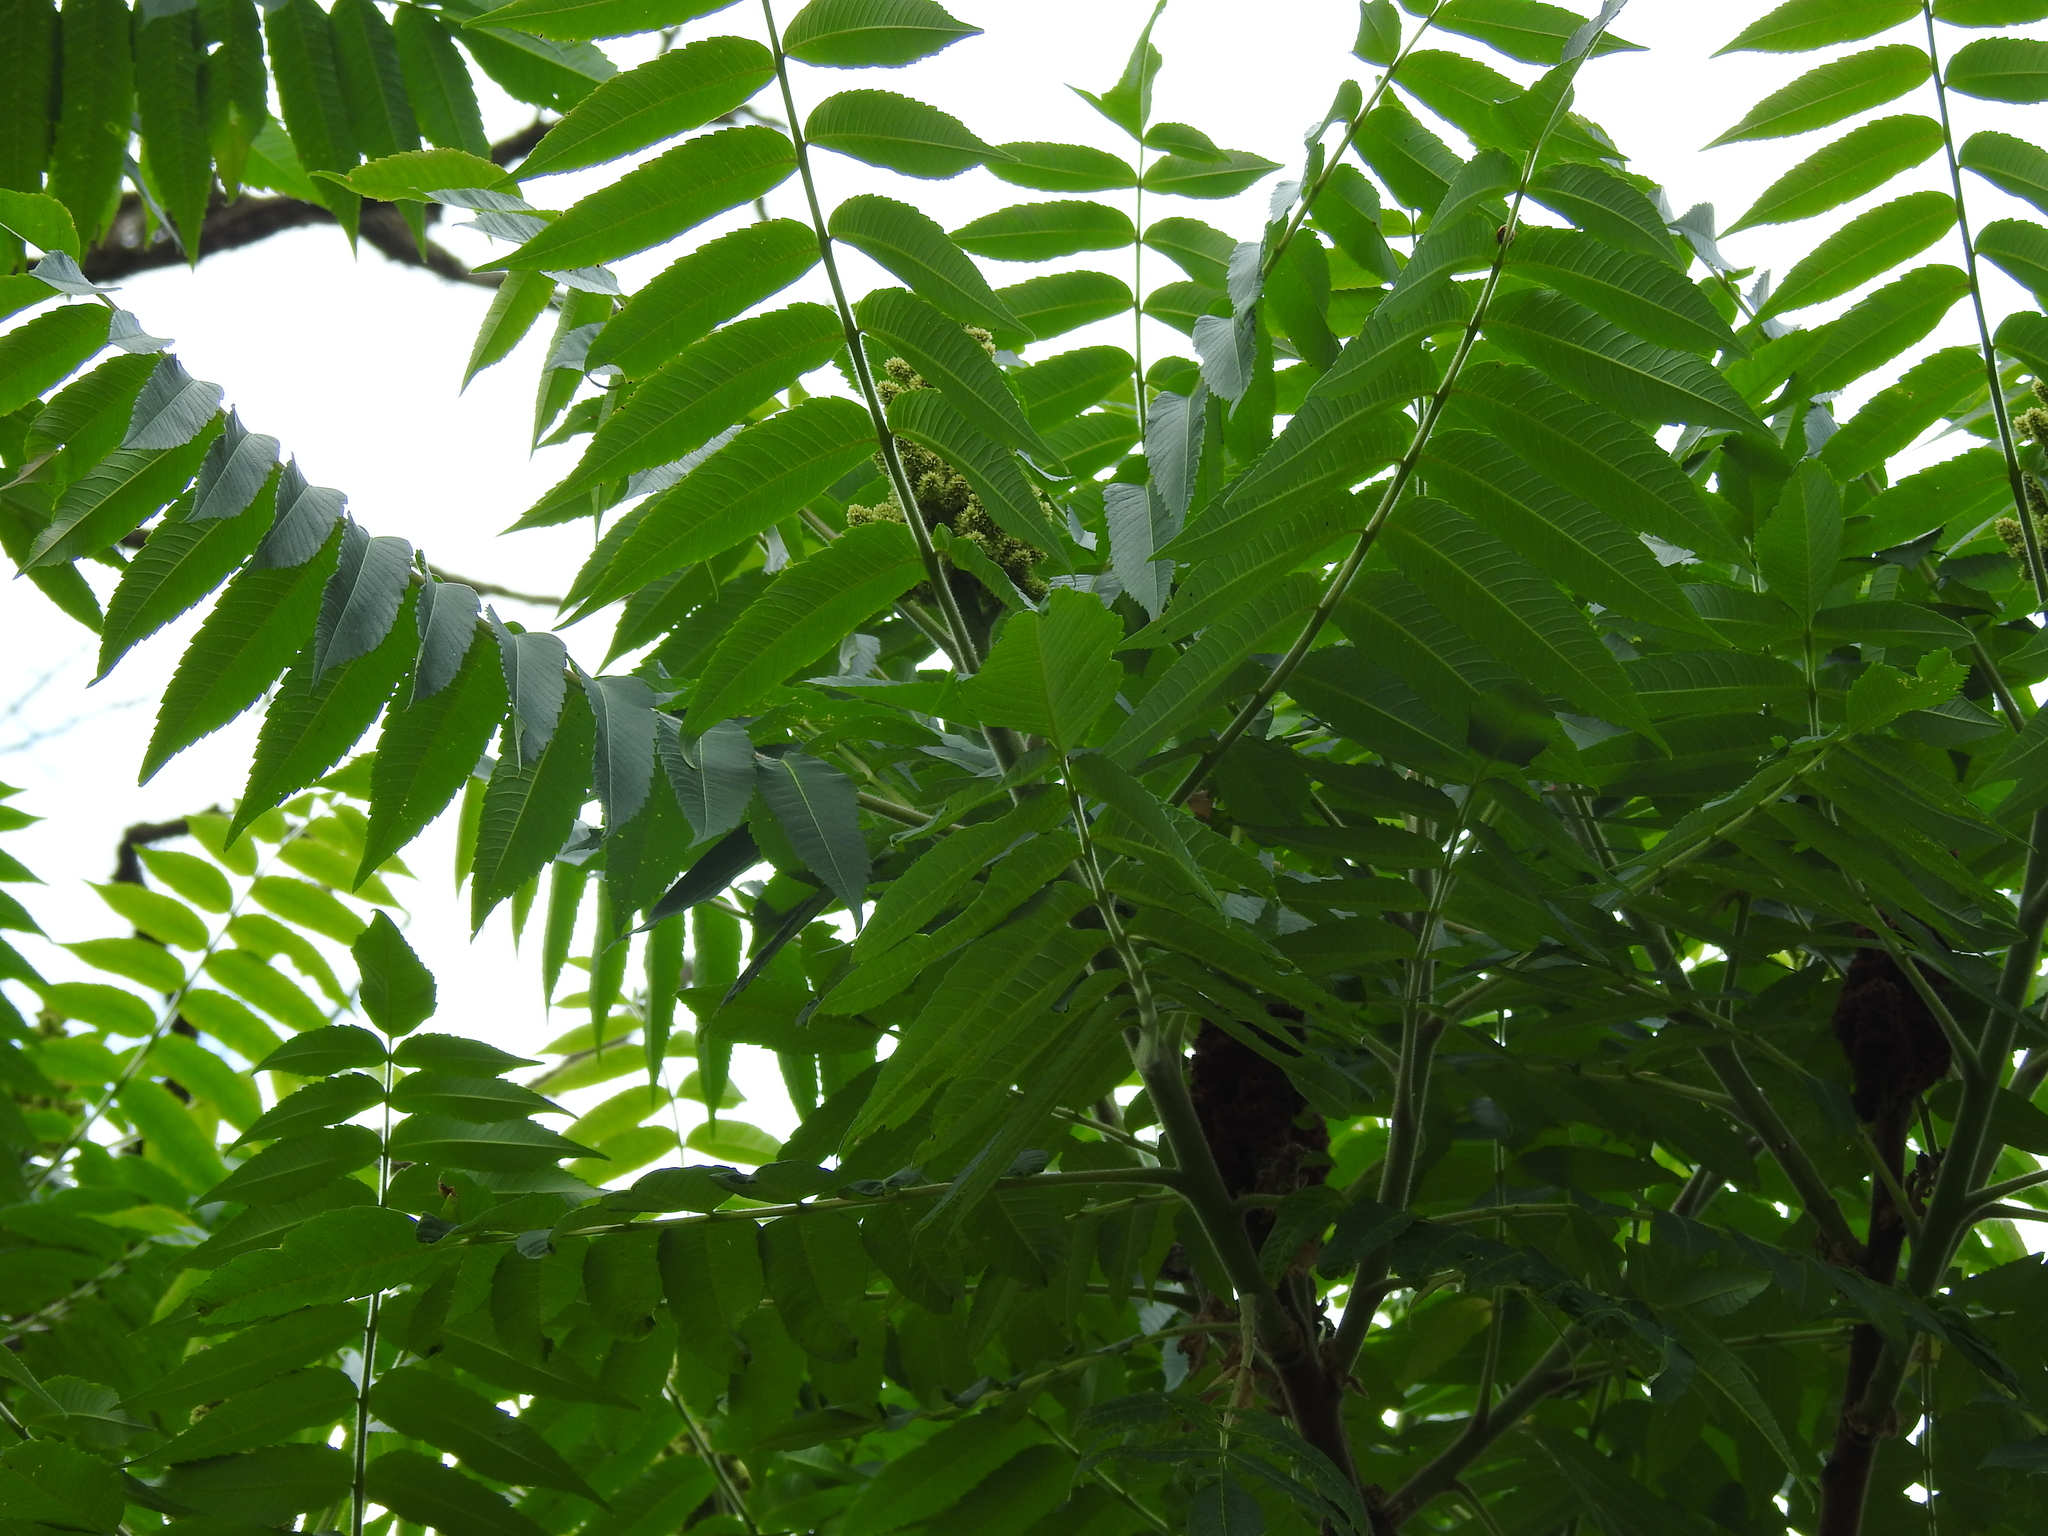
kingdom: Plantae
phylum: Tracheophyta
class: Magnoliopsida
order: Sapindales
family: Anacardiaceae
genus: Rhus
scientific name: Rhus typhina
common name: Staghorn sumac
